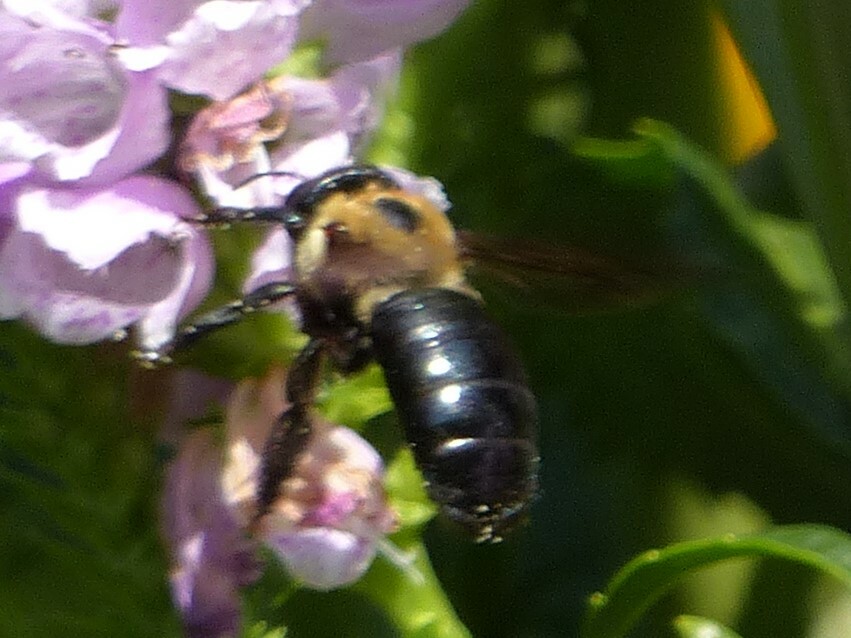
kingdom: Animalia
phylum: Arthropoda
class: Insecta
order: Hymenoptera
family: Apidae
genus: Xylocopa
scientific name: Xylocopa virginica
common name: Carpenter bee
